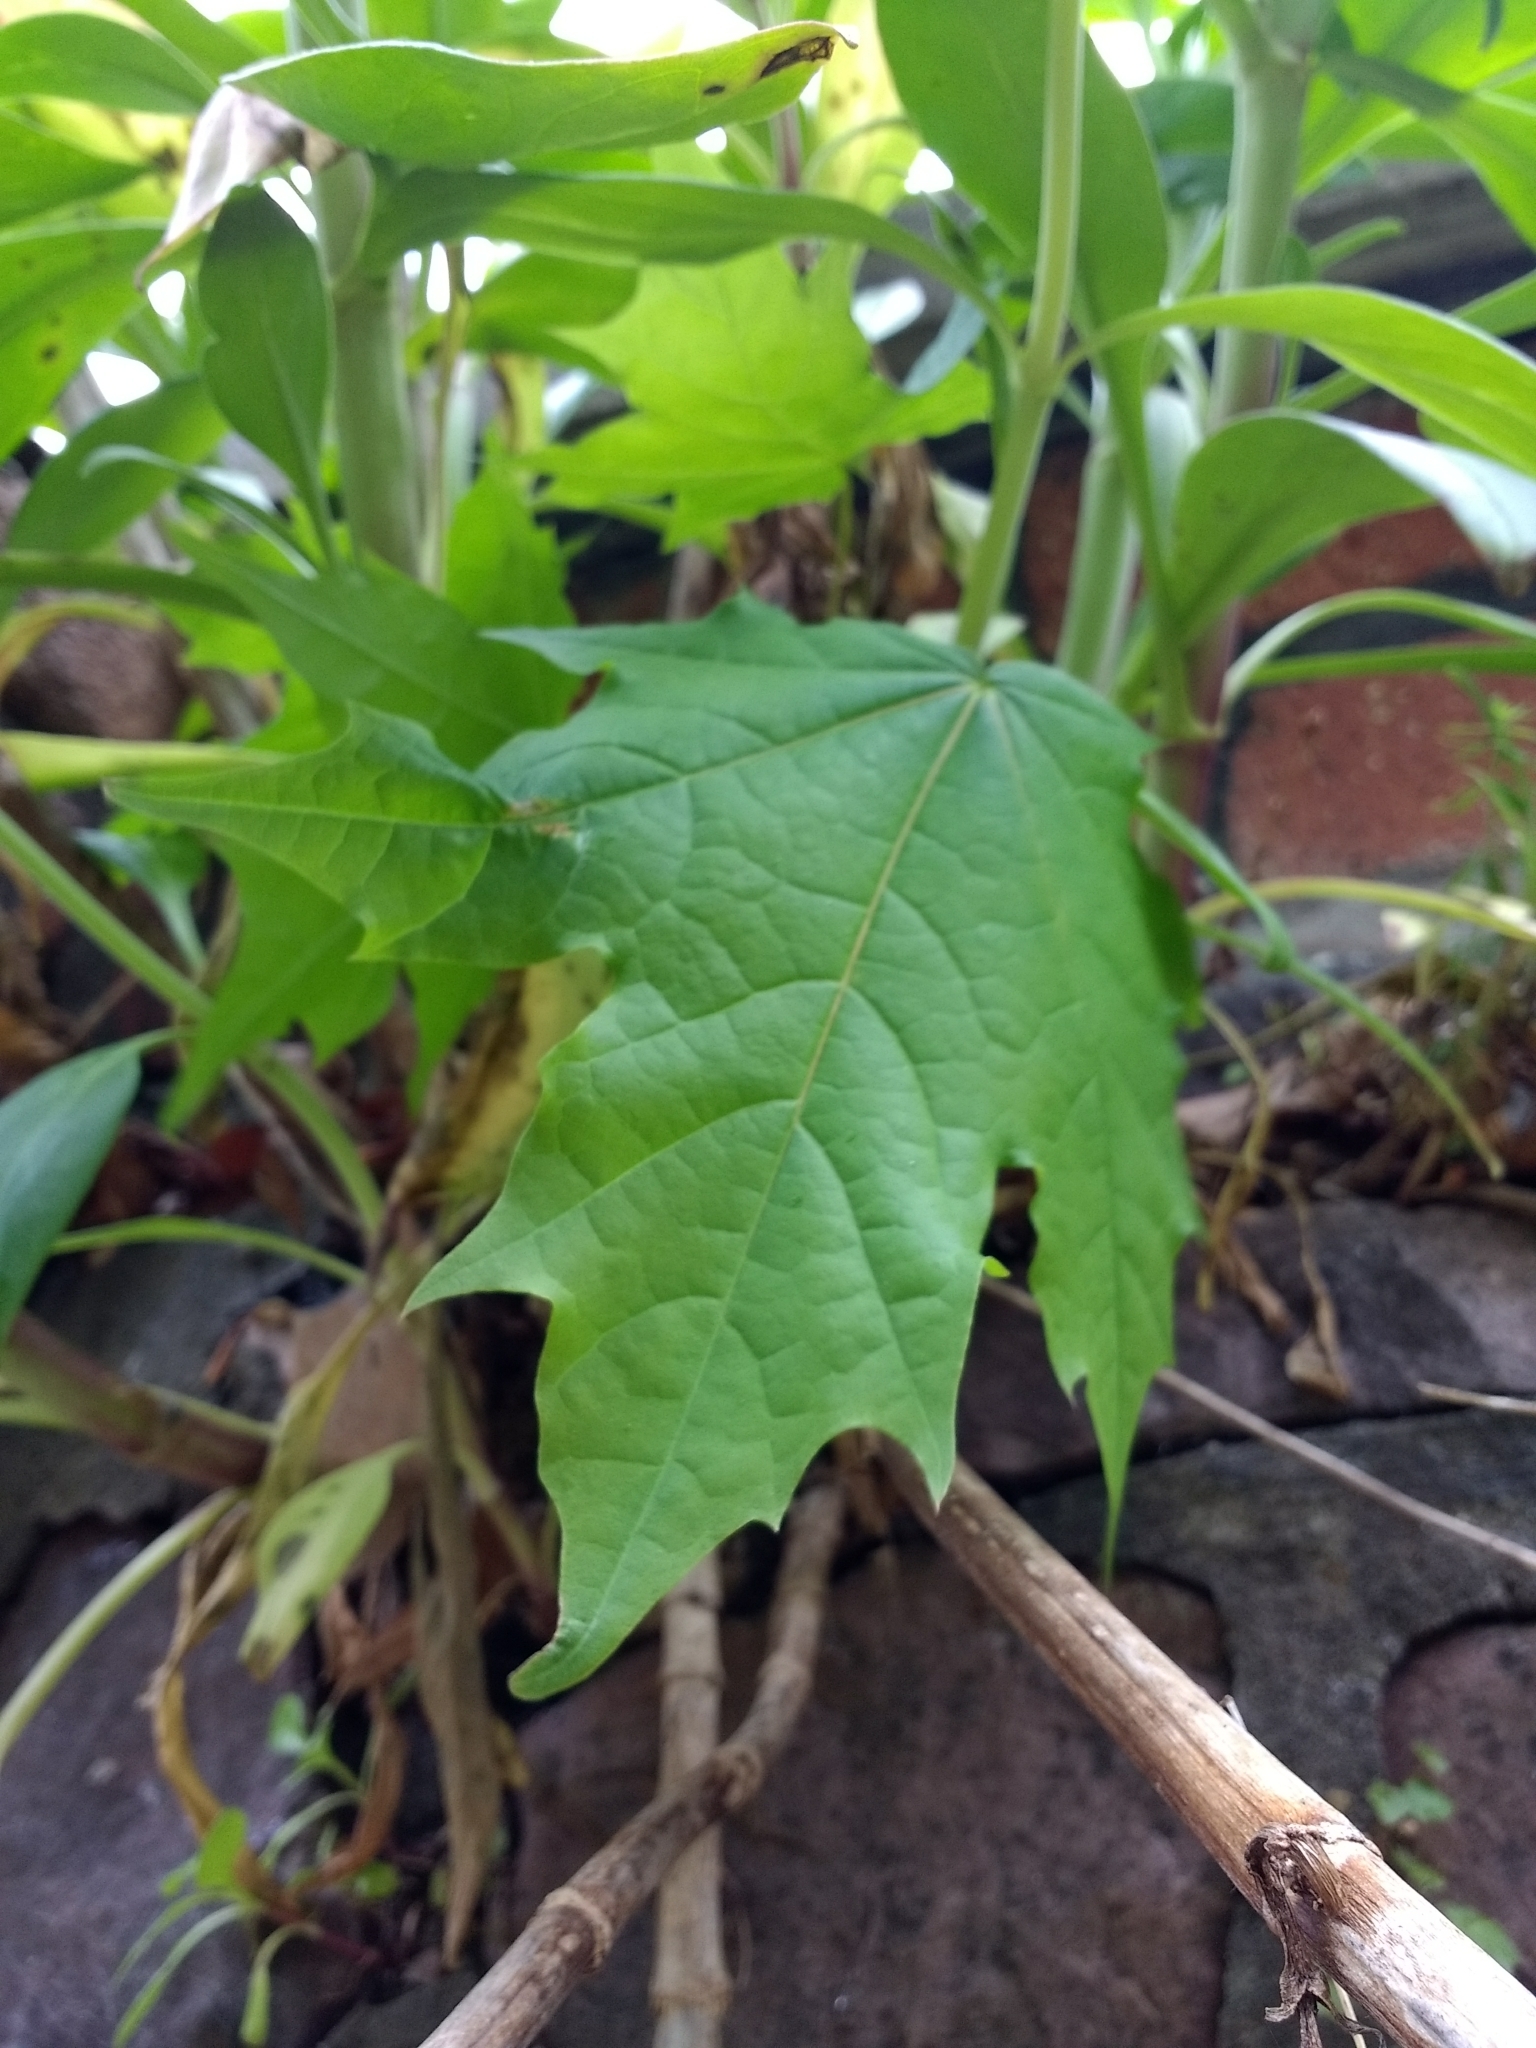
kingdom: Plantae
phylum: Tracheophyta
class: Magnoliopsida
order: Sapindales
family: Sapindaceae
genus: Acer
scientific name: Acer platanoides
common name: Norway maple
